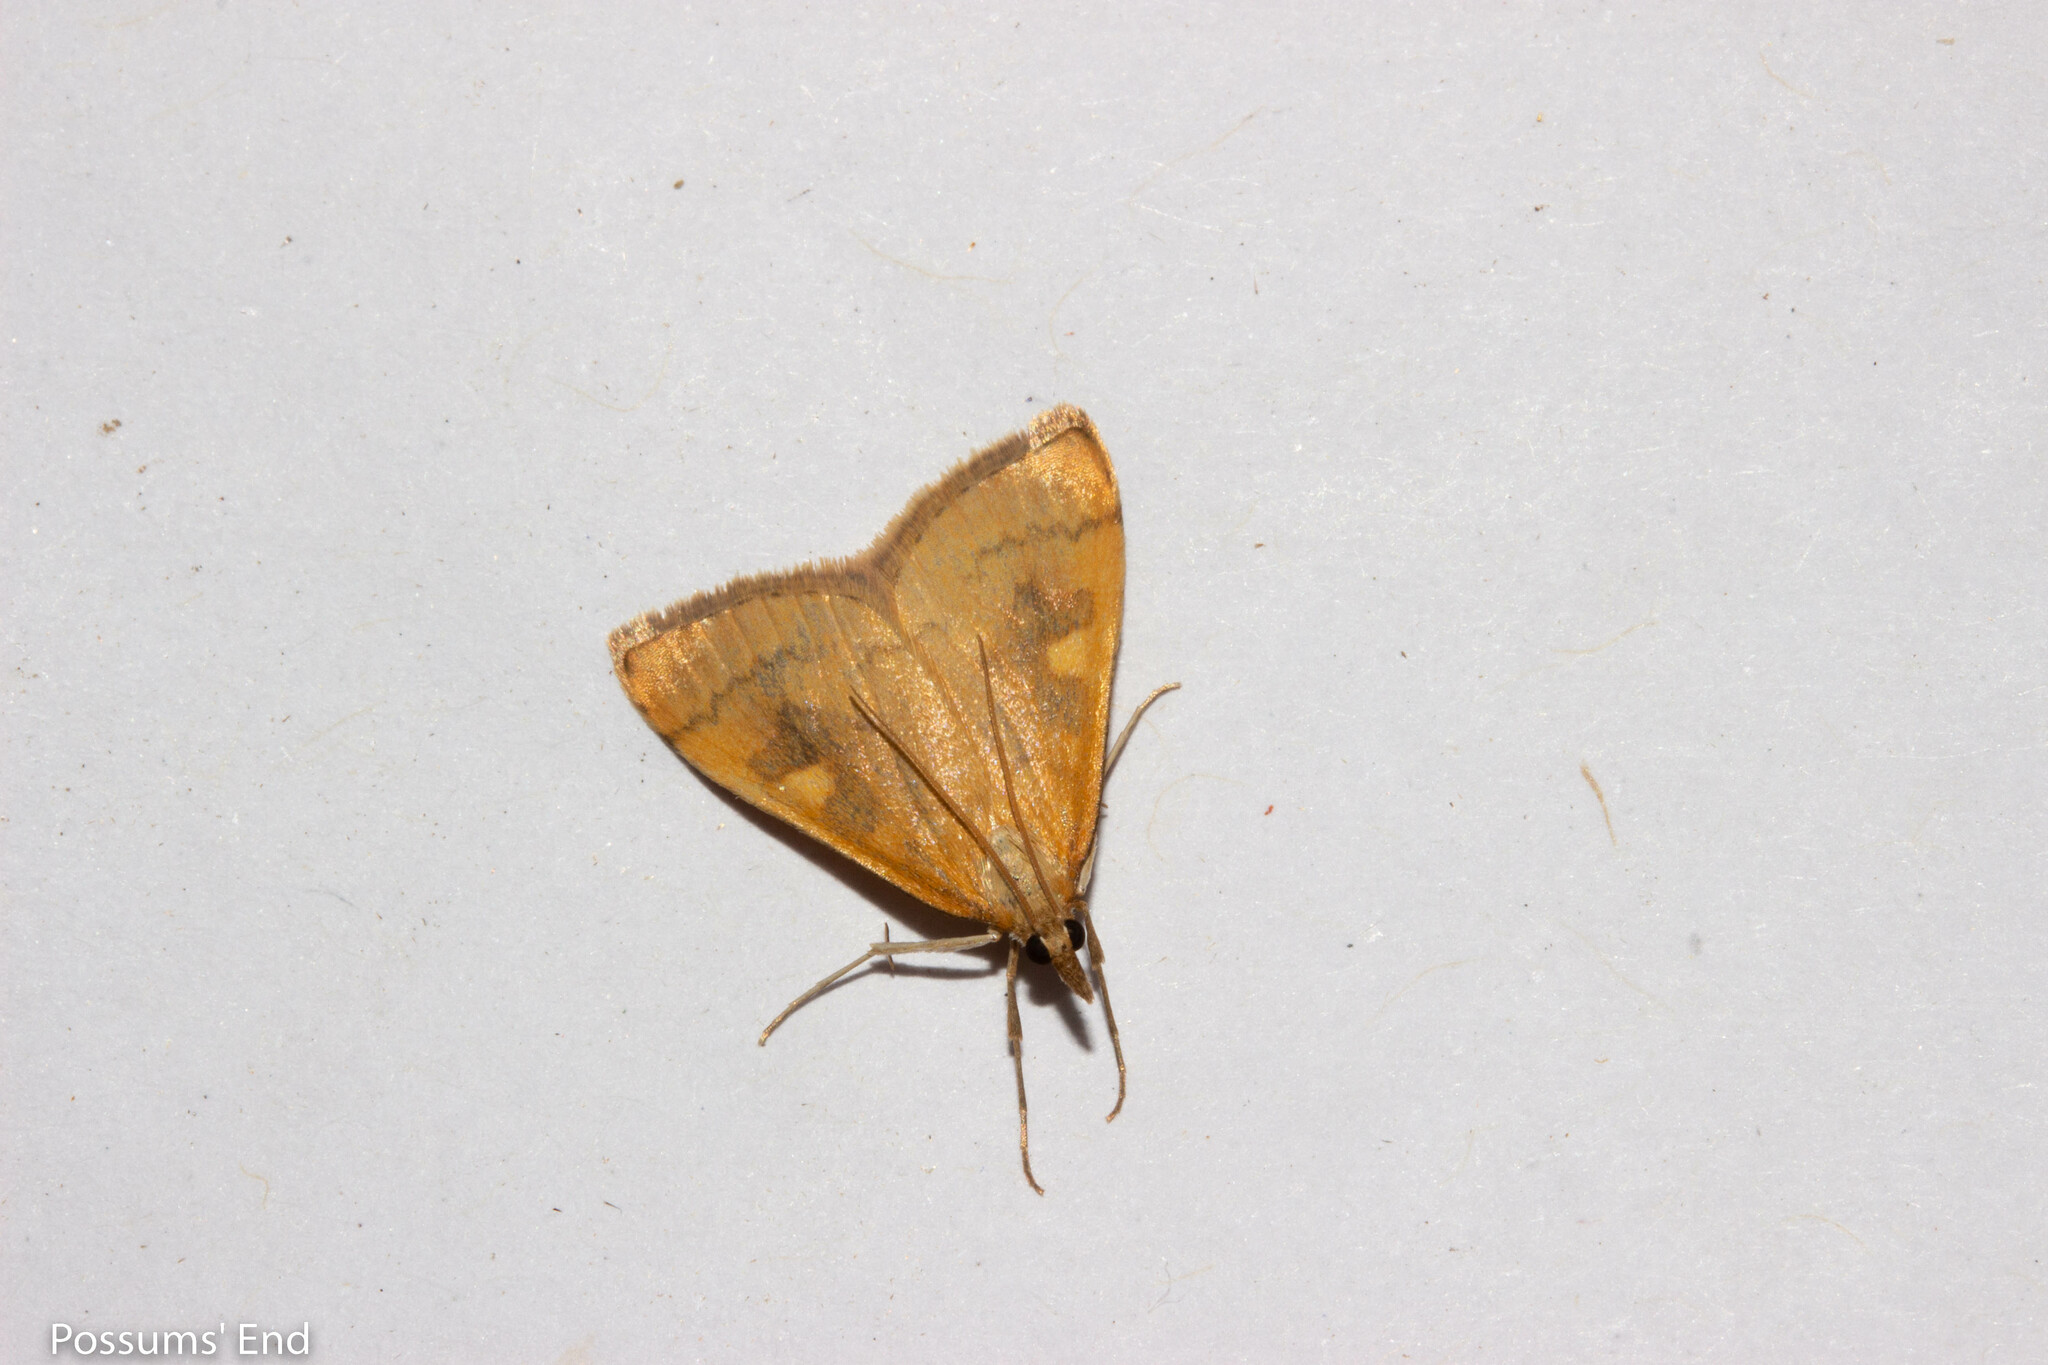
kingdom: Animalia
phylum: Arthropoda
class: Insecta
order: Lepidoptera
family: Crambidae
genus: Udea
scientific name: Udea Mnesictena flavidalis
